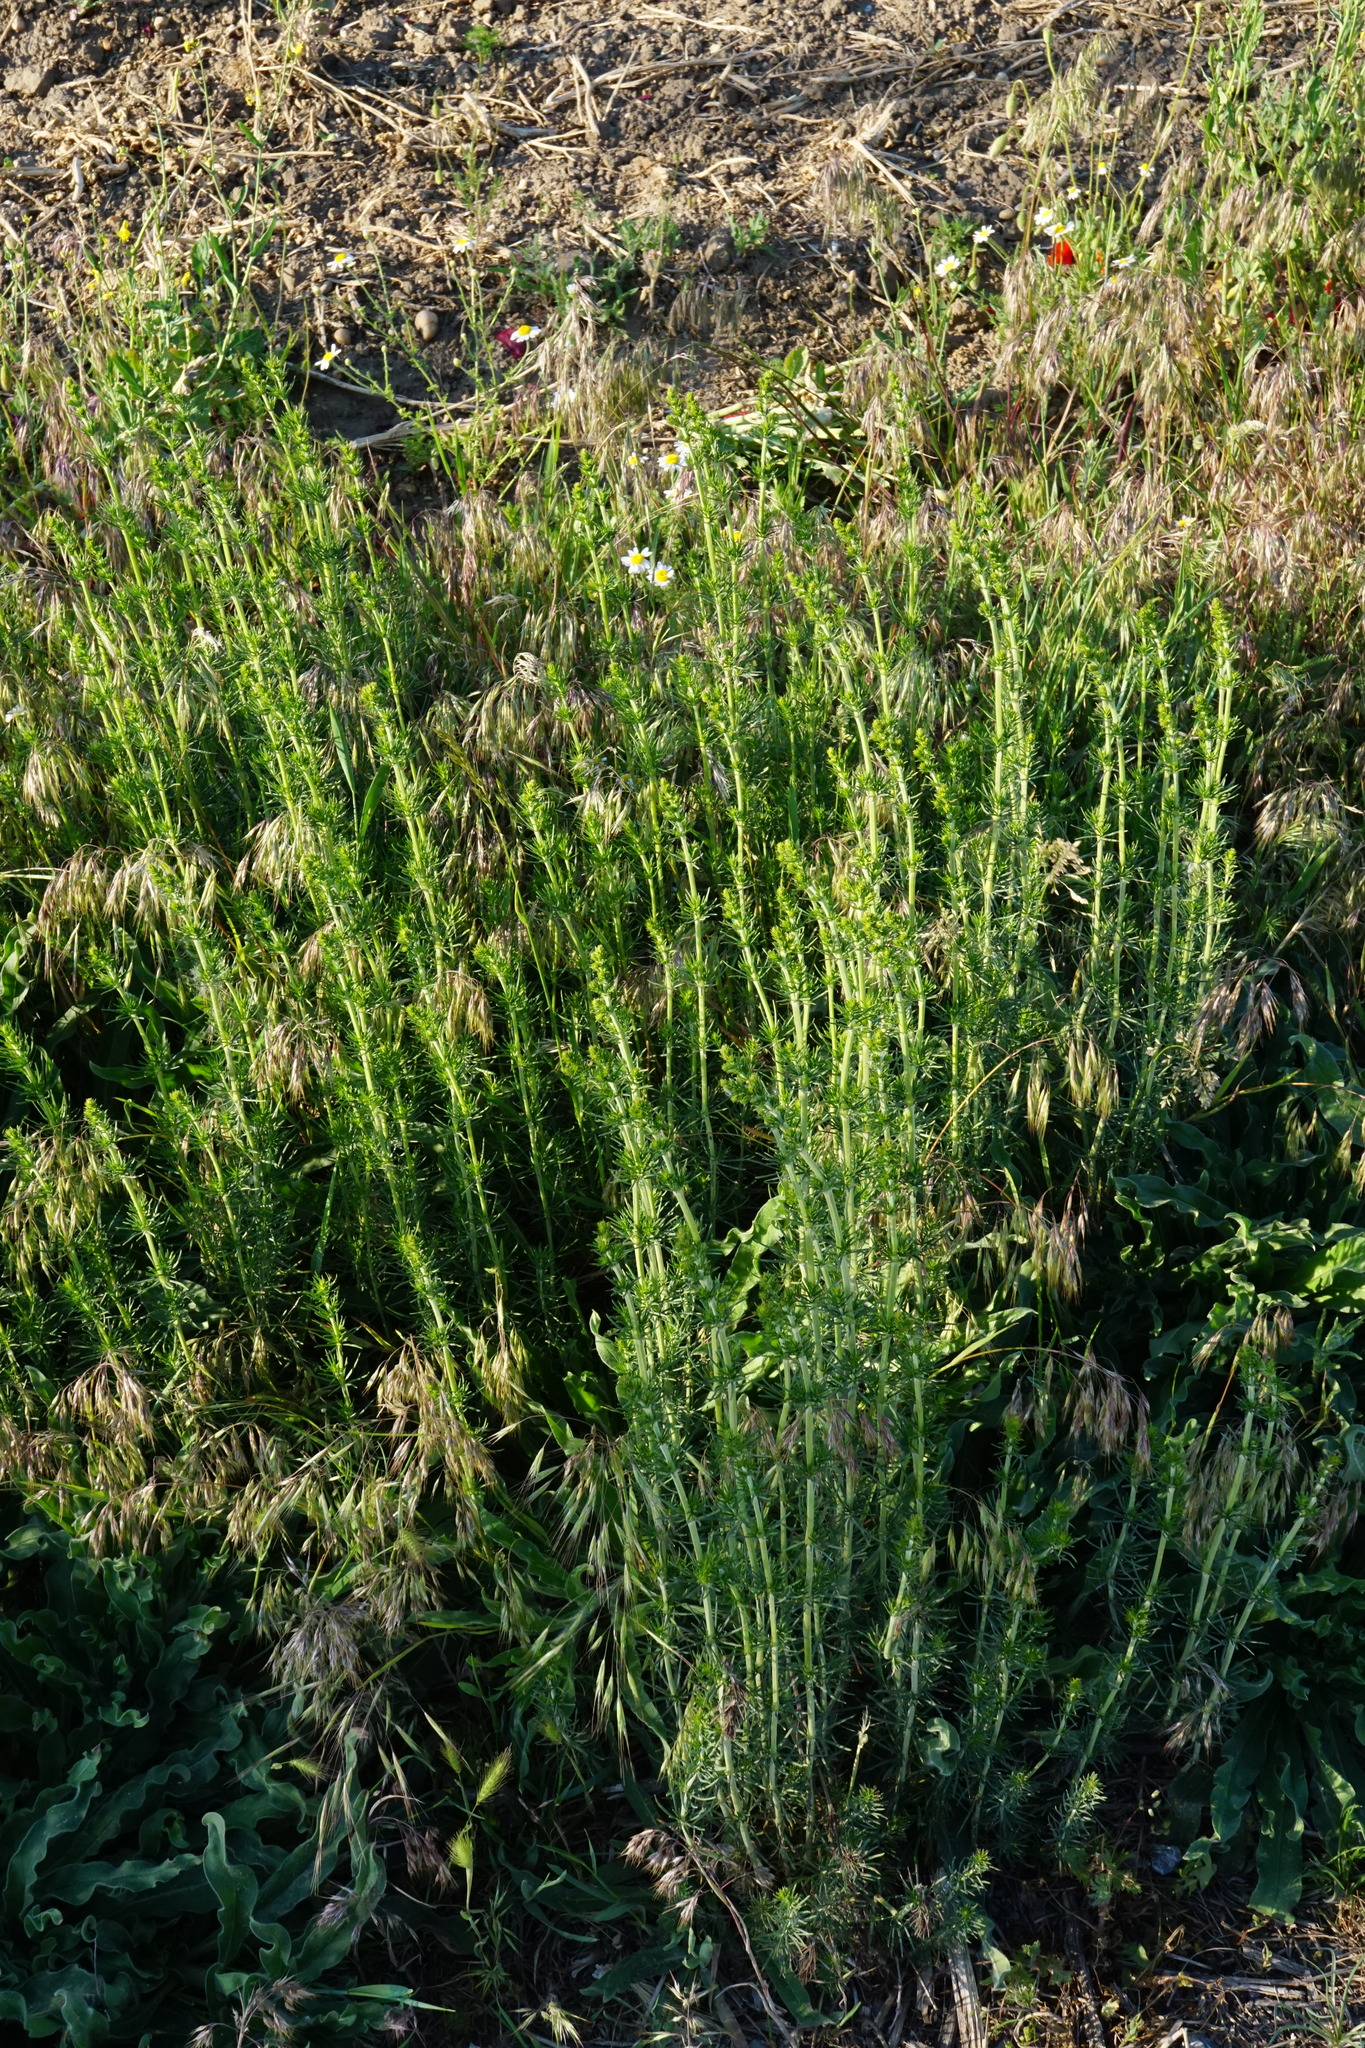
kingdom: Plantae
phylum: Tracheophyta
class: Magnoliopsida
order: Gentianales
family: Rubiaceae
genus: Galium
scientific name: Galium verum
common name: Lady's bedstraw
